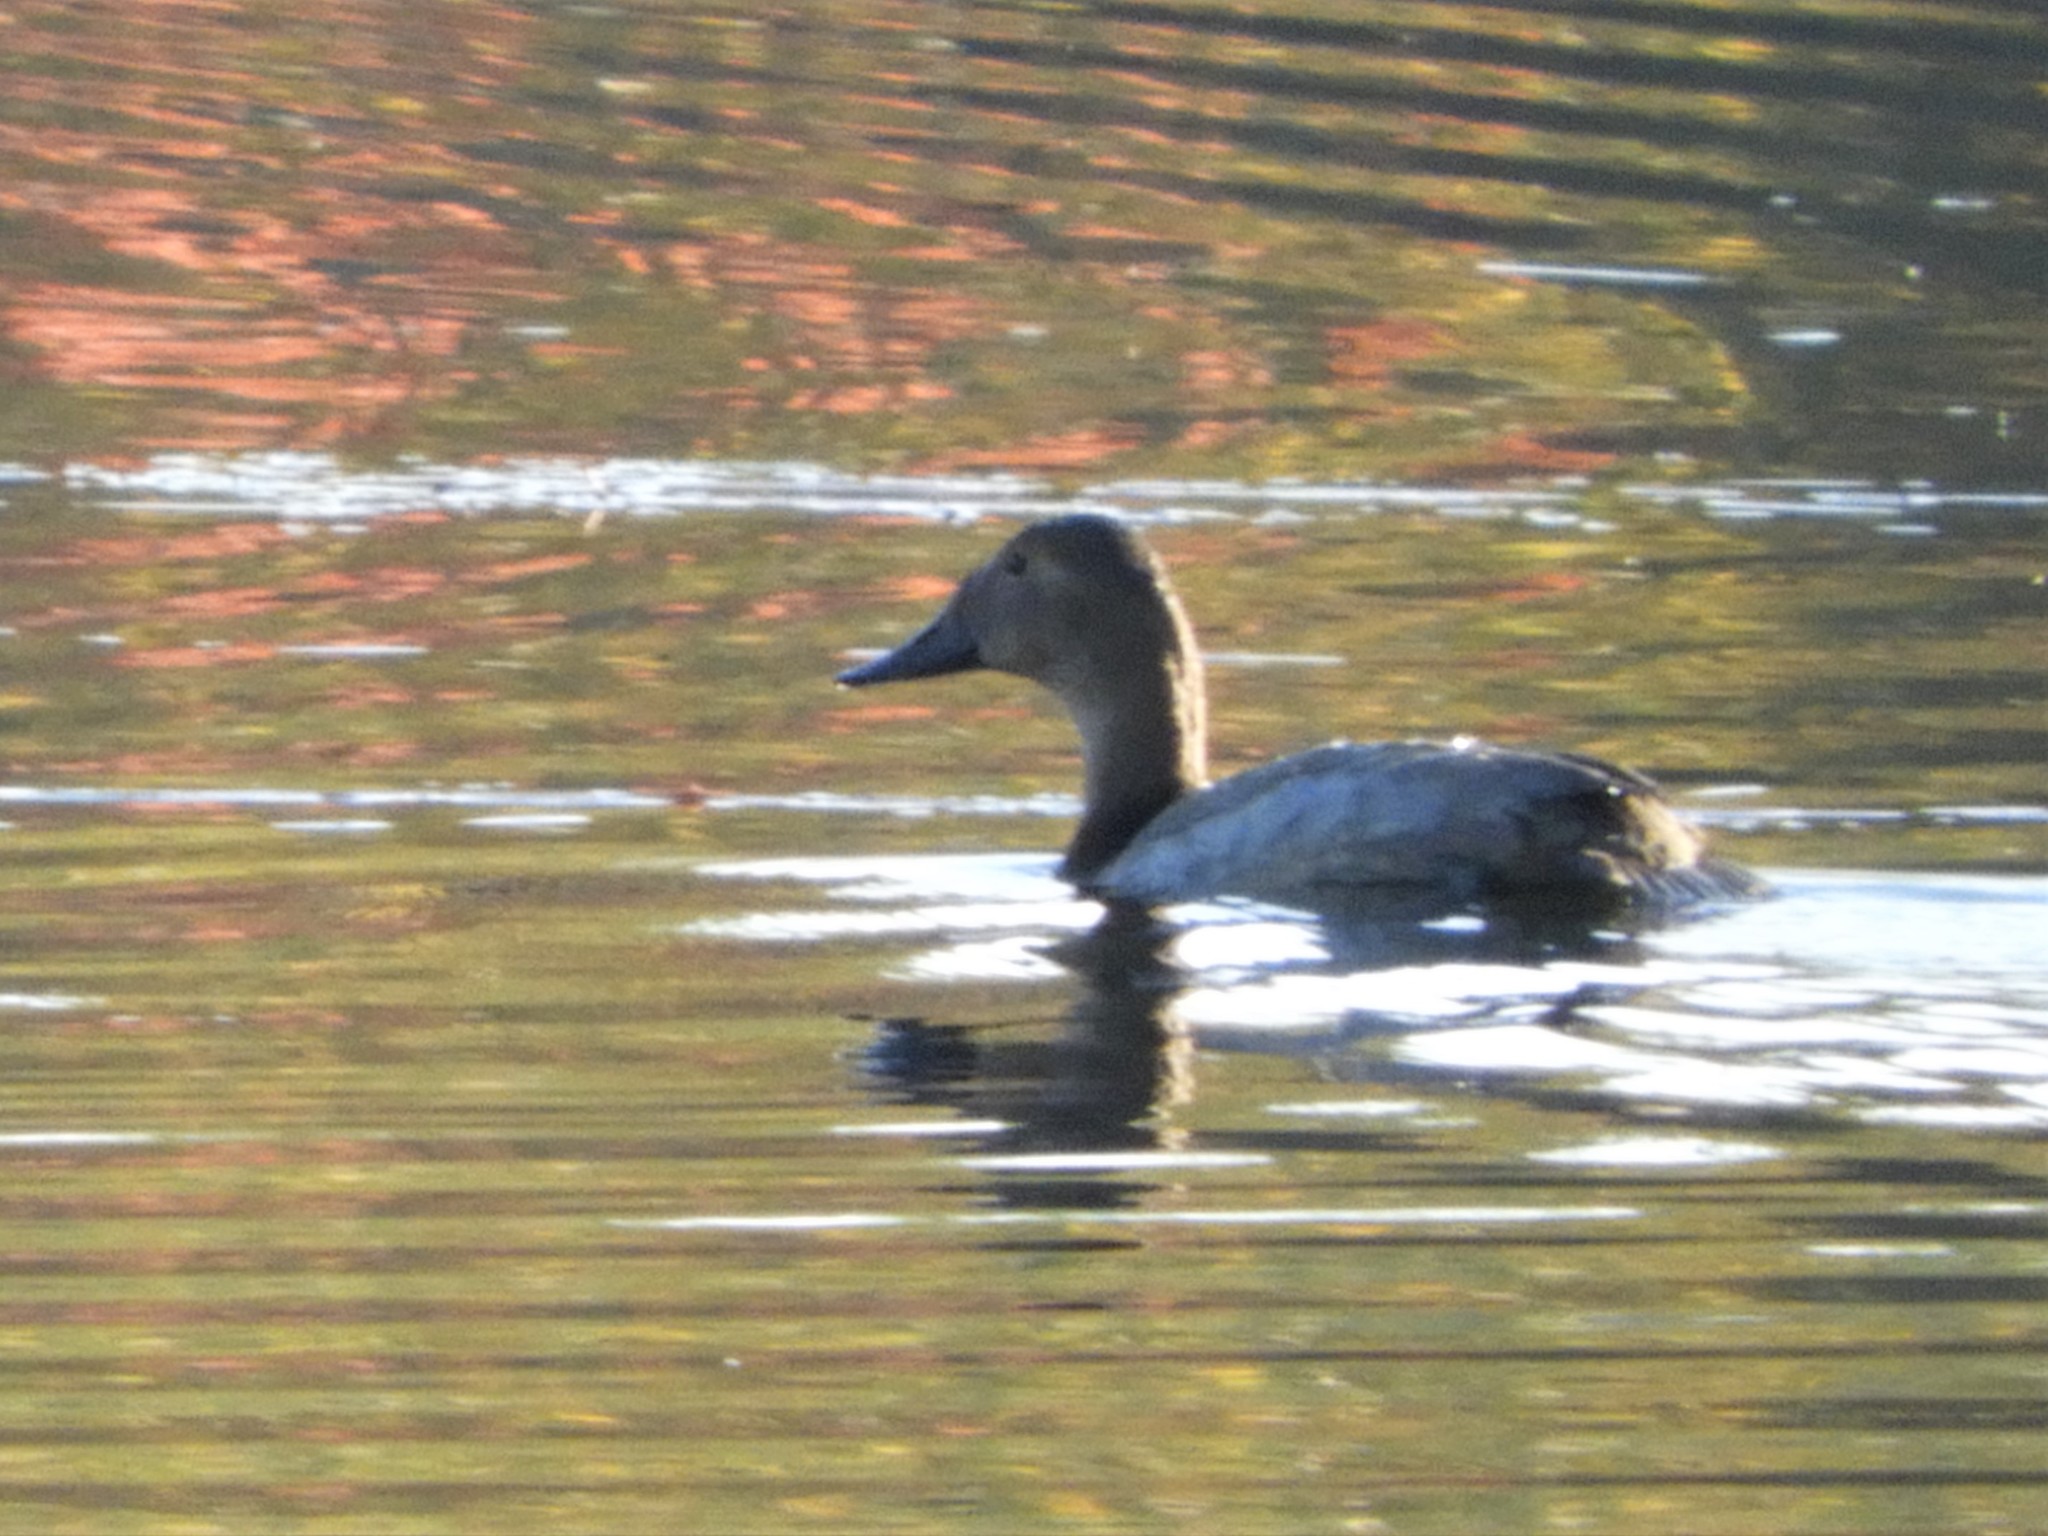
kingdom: Animalia
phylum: Chordata
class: Aves
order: Anseriformes
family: Anatidae
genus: Aythya
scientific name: Aythya valisineria
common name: Canvasback
